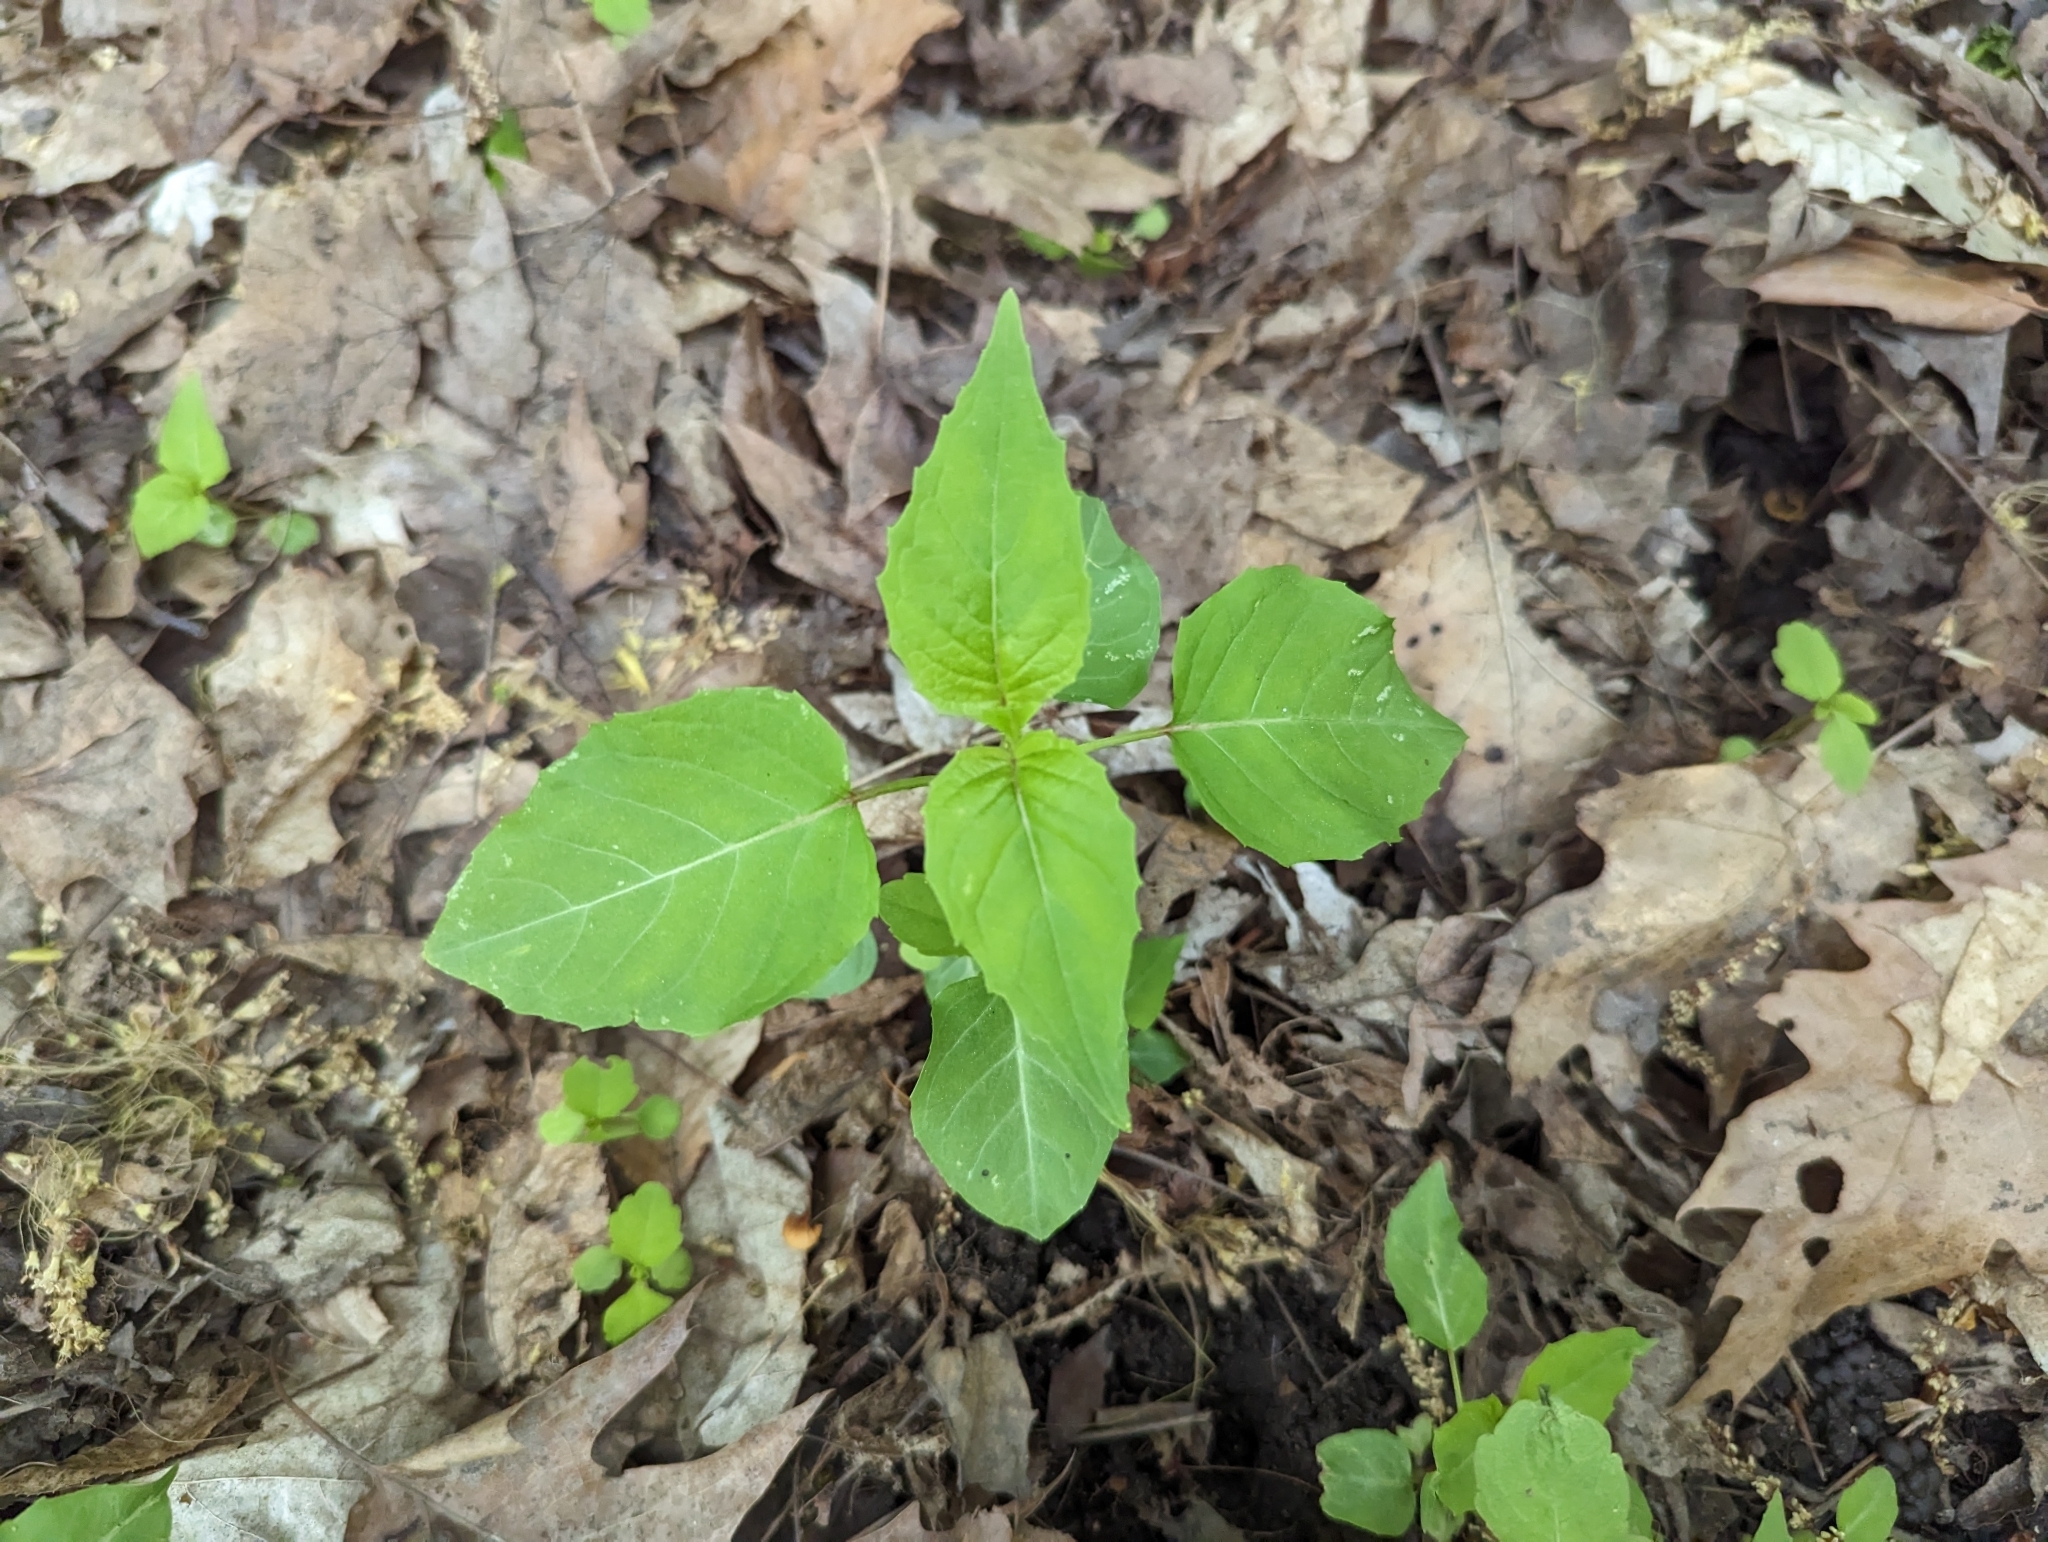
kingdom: Plantae
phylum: Tracheophyta
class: Magnoliopsida
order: Myrtales
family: Onagraceae
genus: Circaea
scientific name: Circaea canadensis
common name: Broad-leaved enchanter's nightshade
